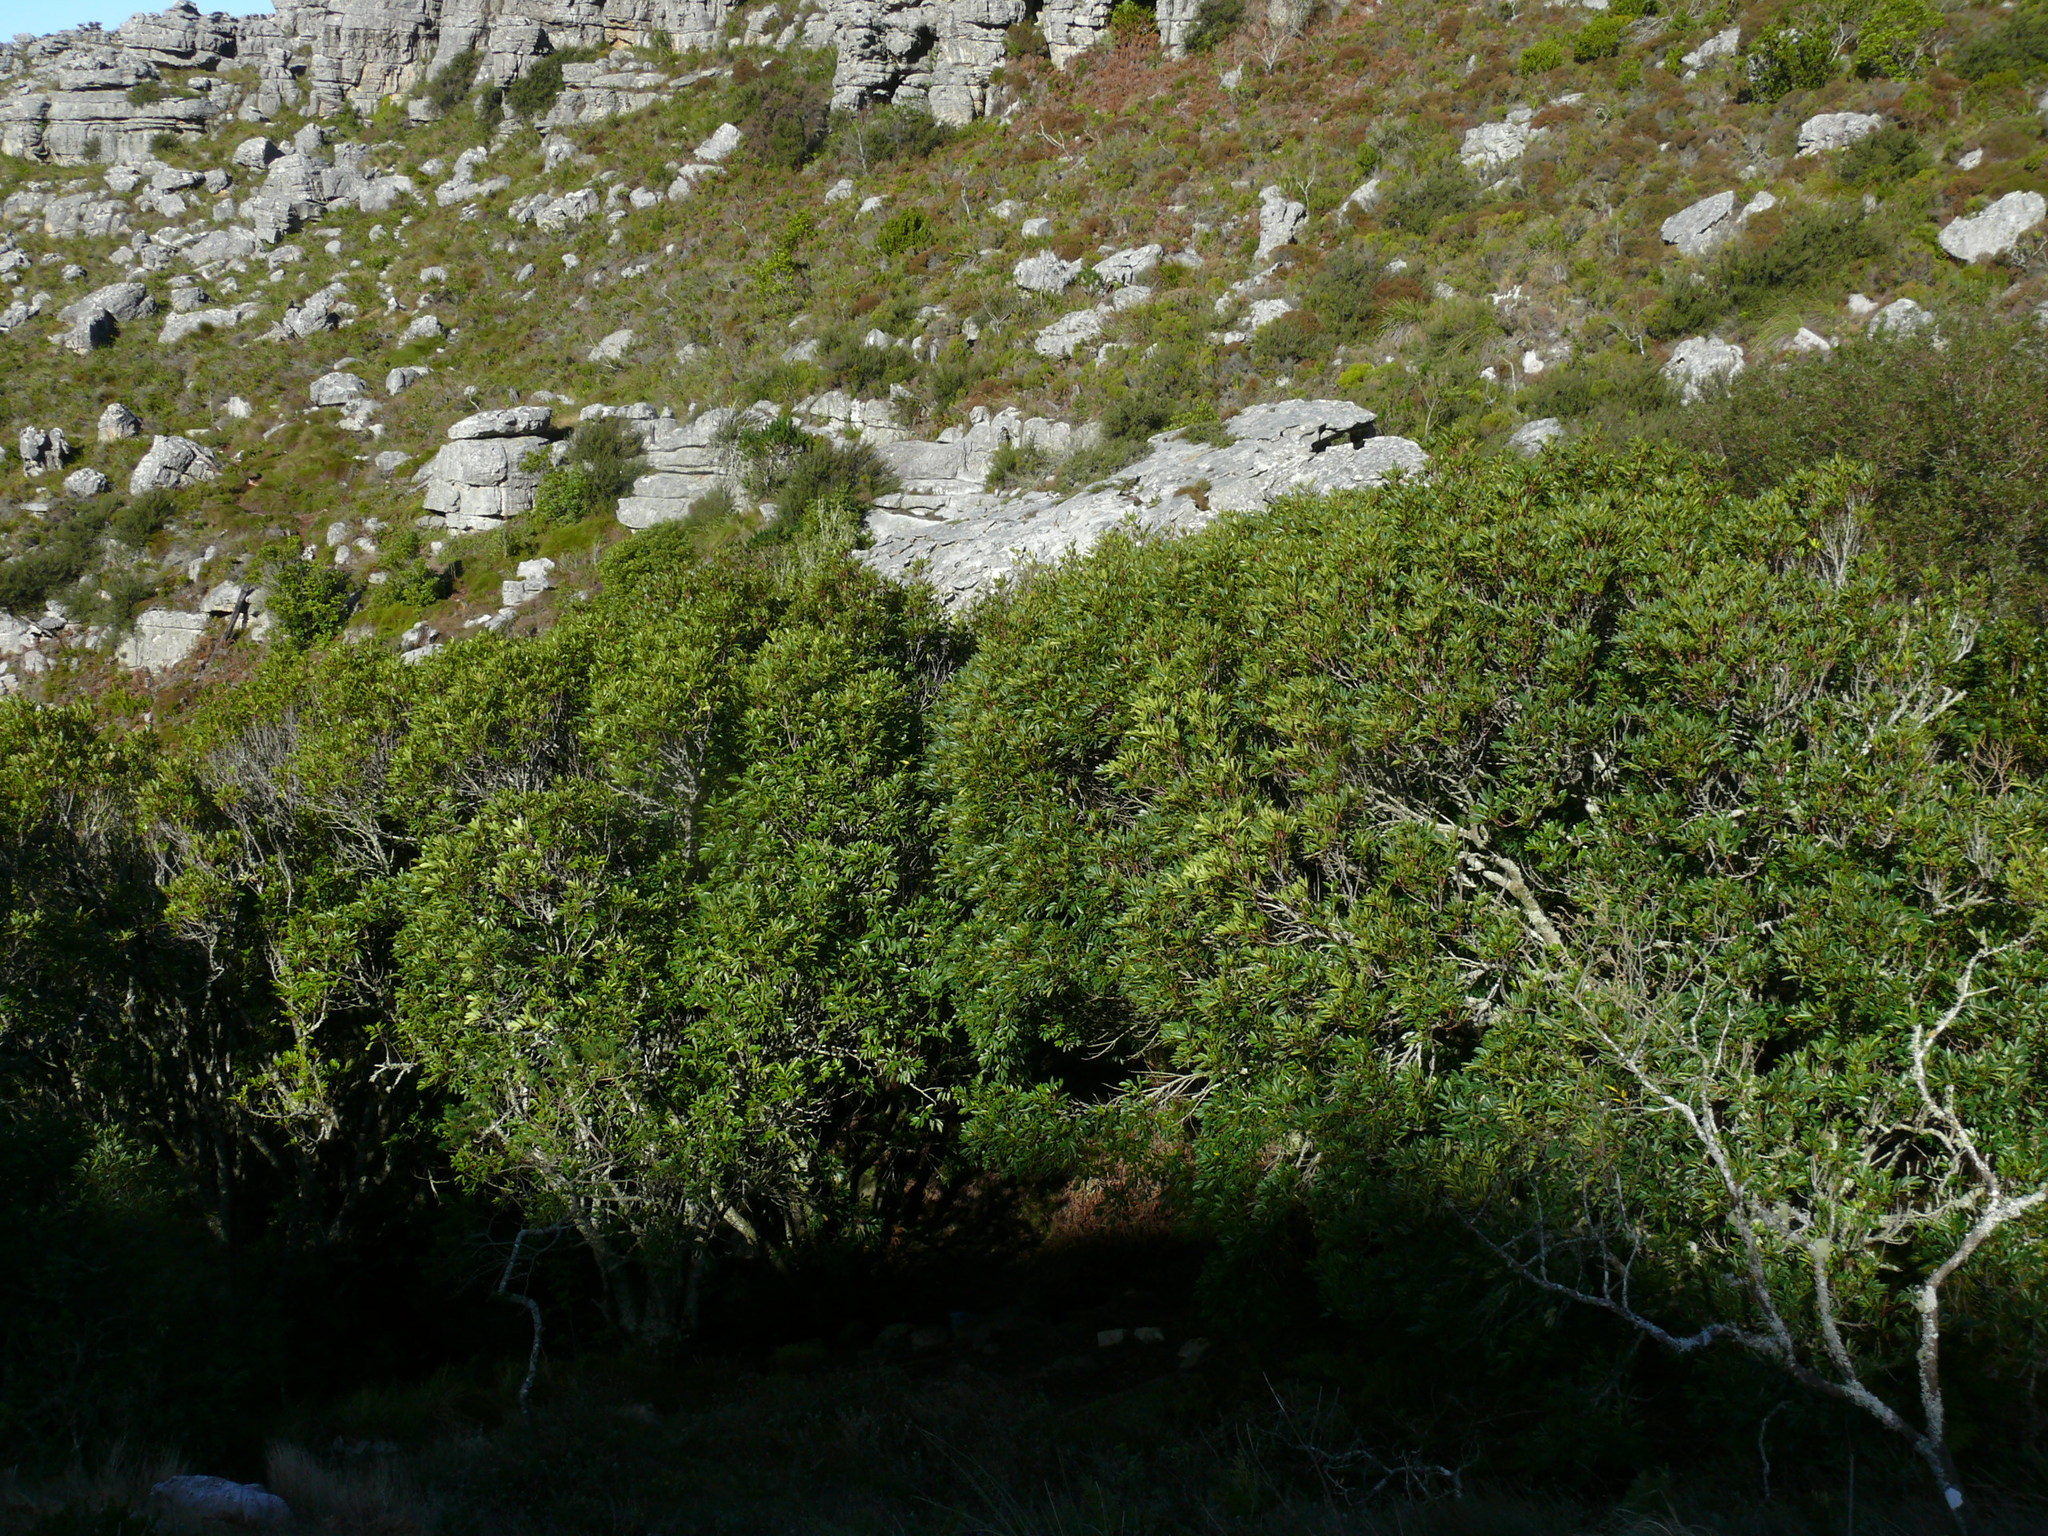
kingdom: Plantae
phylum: Tracheophyta
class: Magnoliopsida
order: Oxalidales
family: Cunoniaceae
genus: Cunonia
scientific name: Cunonia capensis
